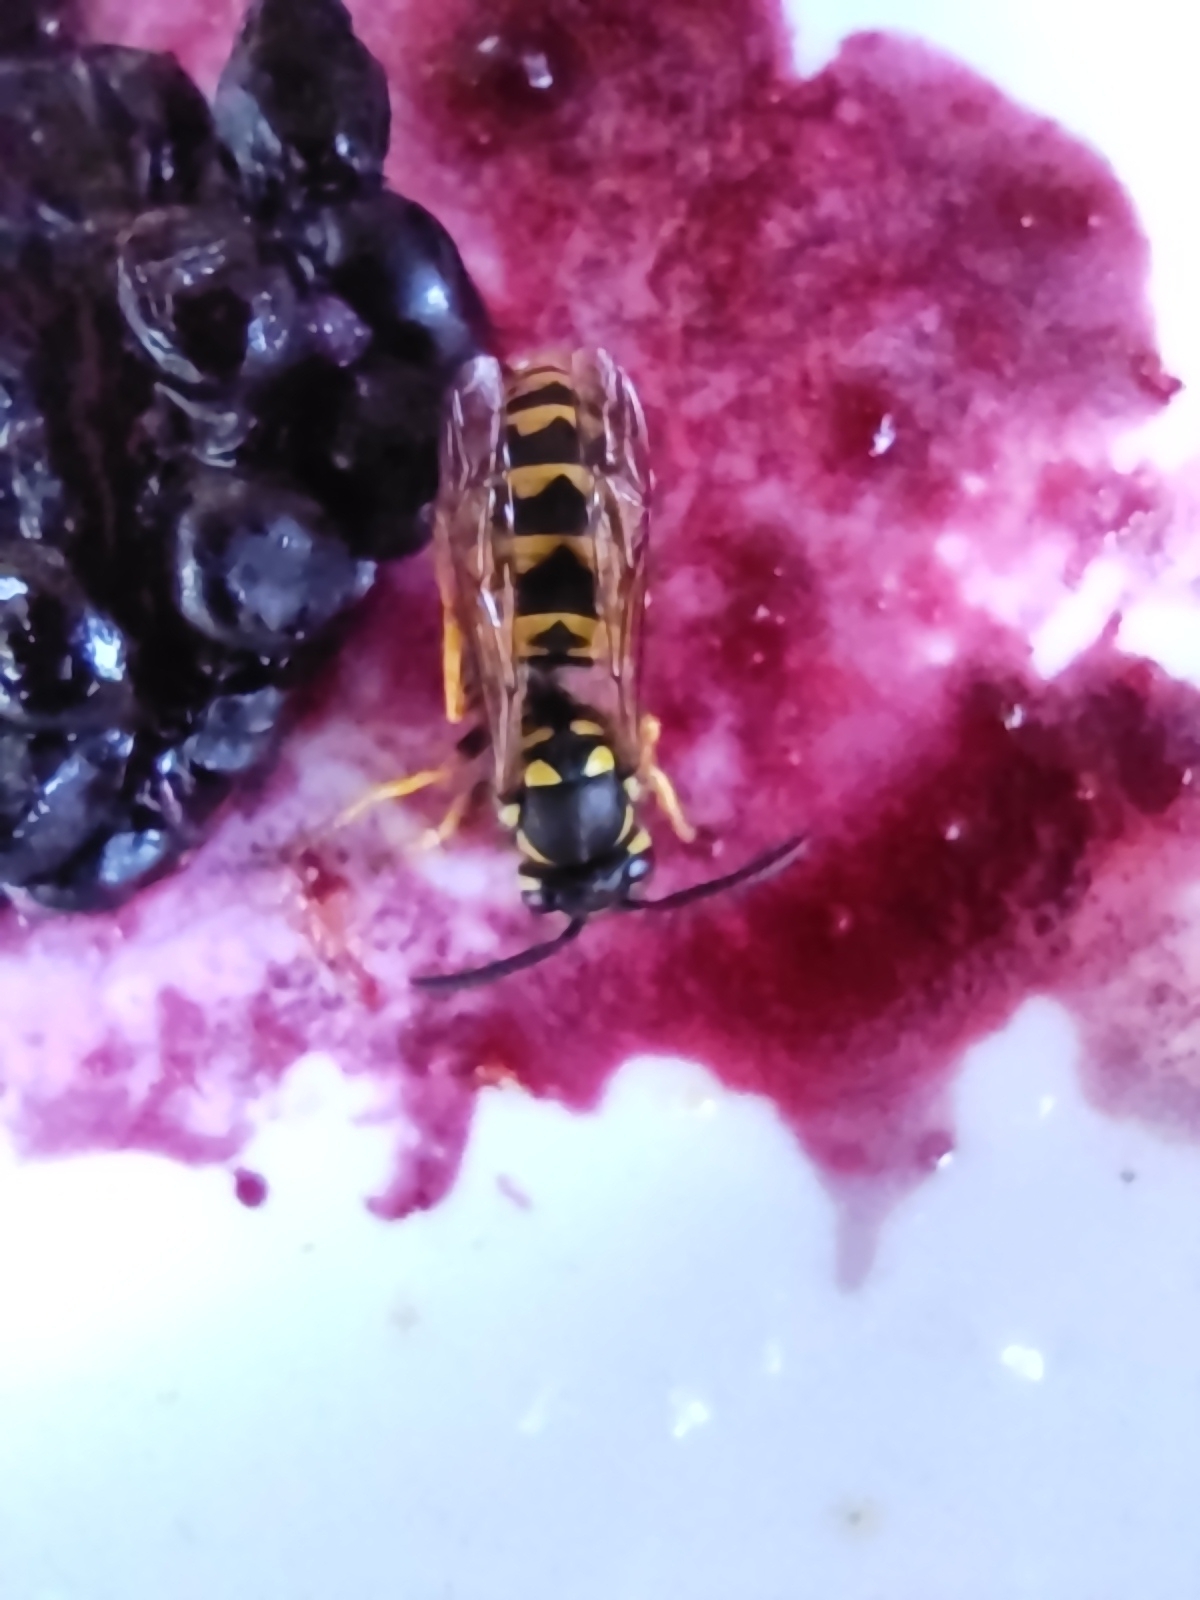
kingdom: Animalia
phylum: Arthropoda
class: Insecta
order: Hymenoptera
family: Vespidae
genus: Vespula
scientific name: Vespula germanica
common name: German wasp
